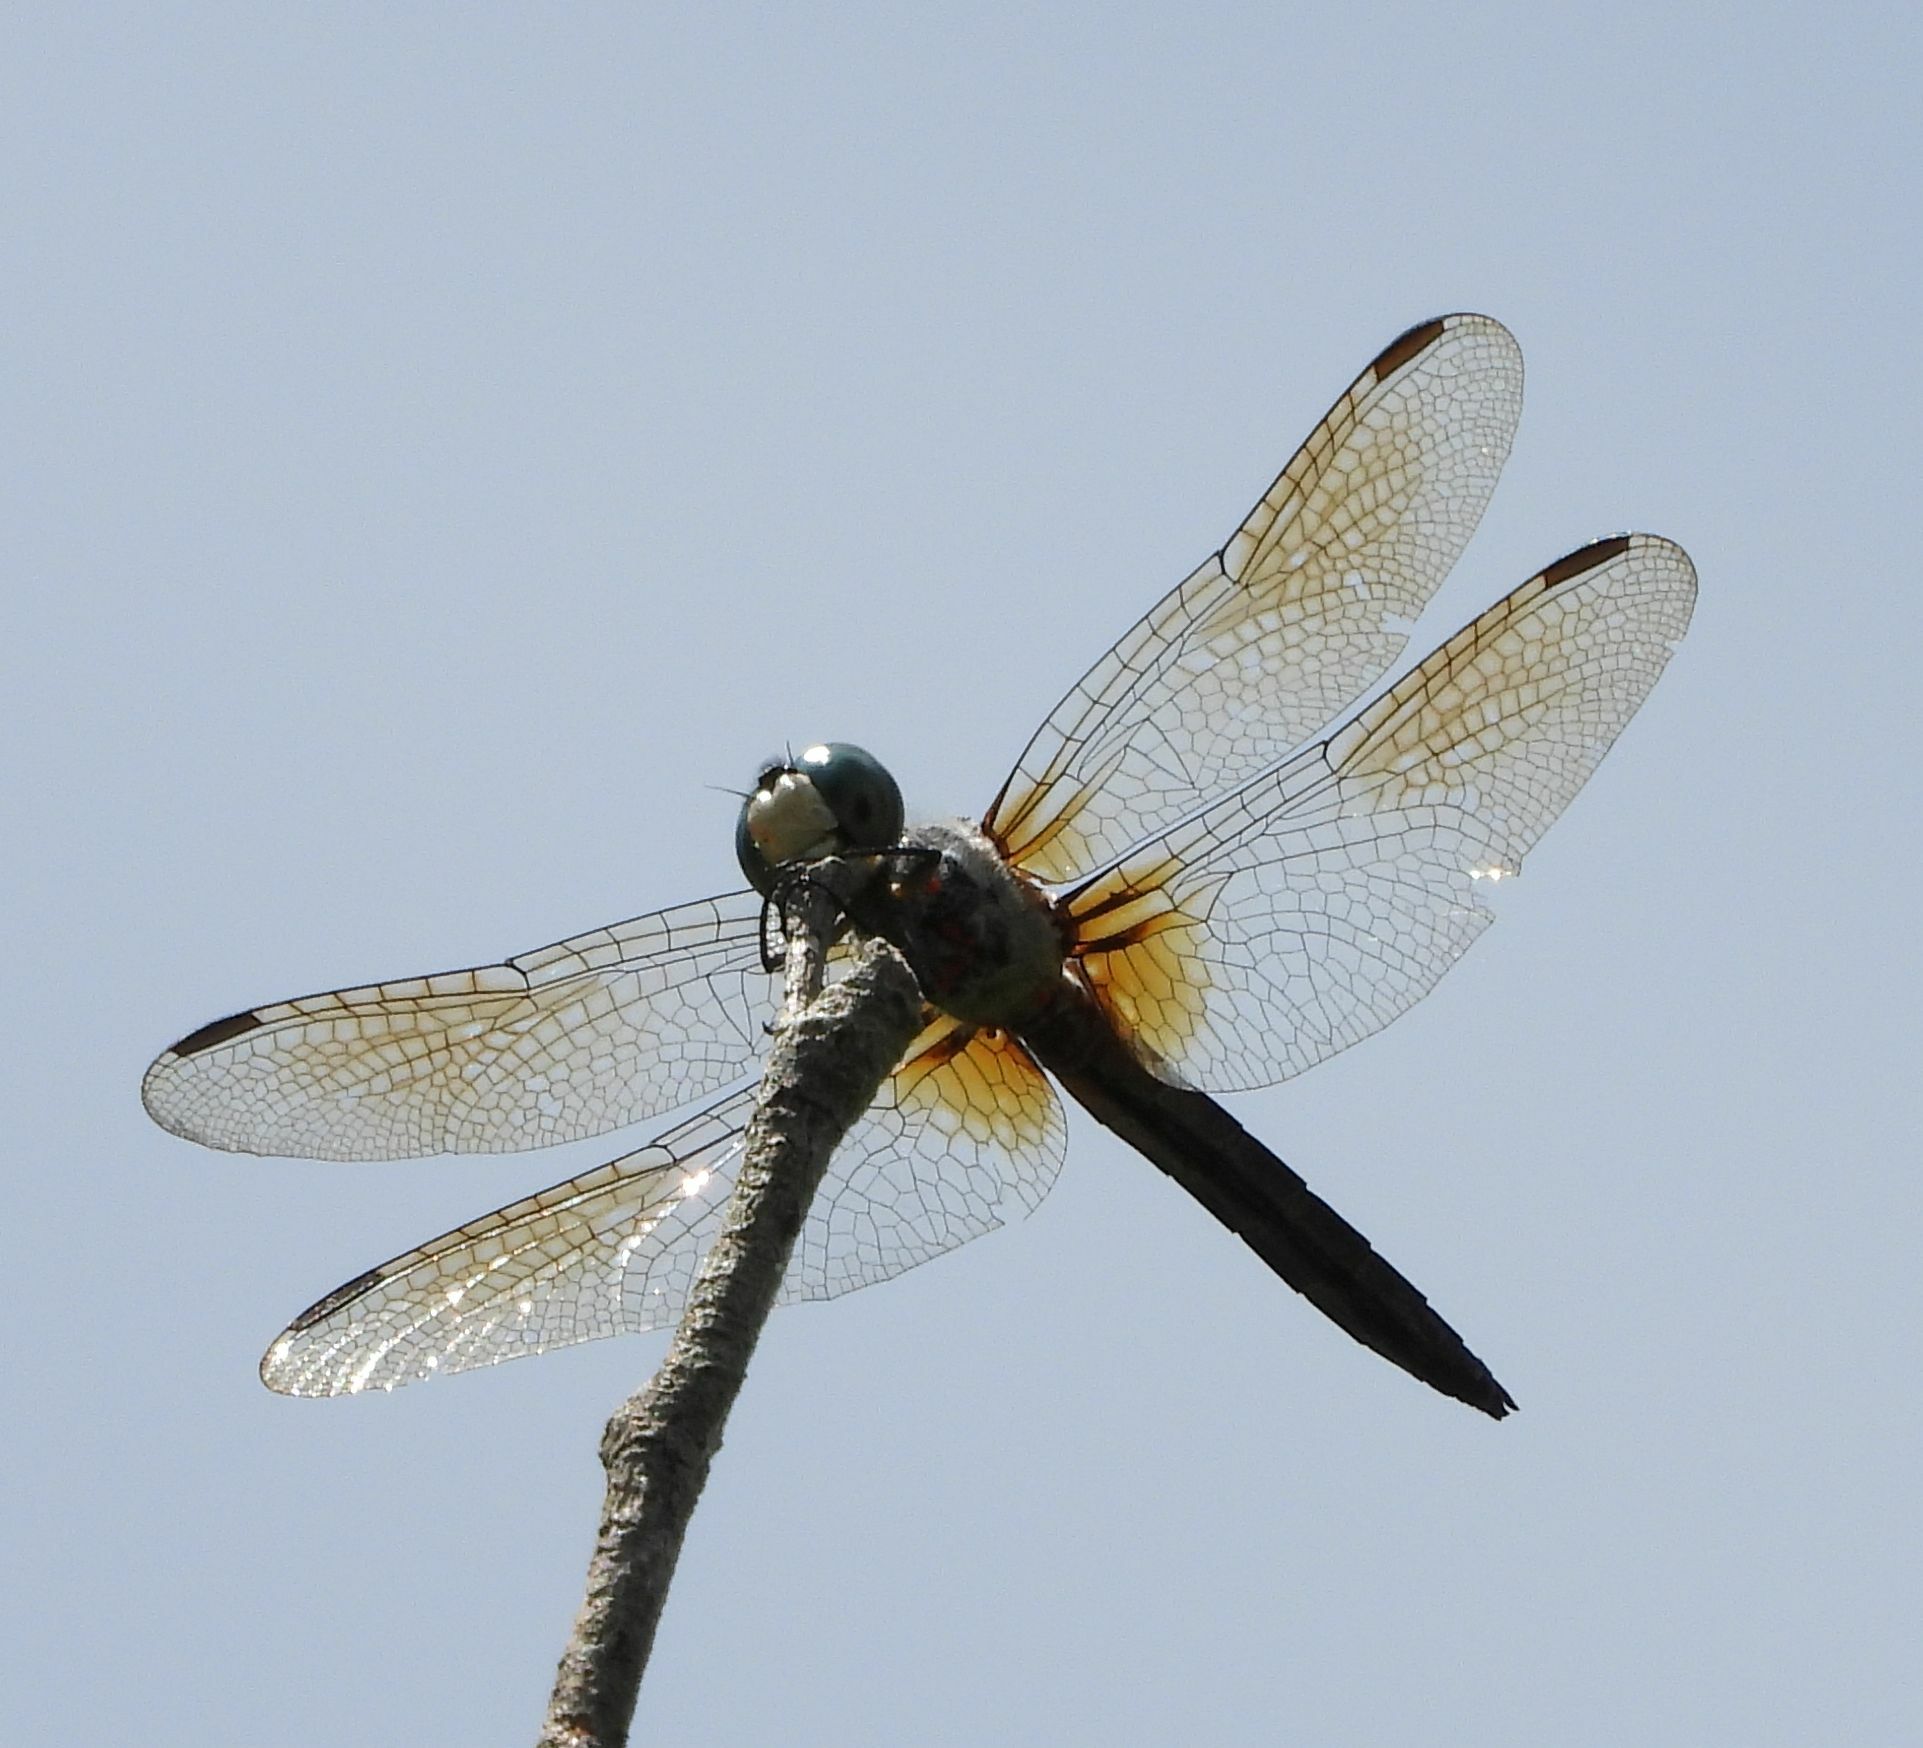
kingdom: Animalia
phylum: Arthropoda
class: Insecta
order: Odonata
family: Libellulidae
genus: Pachydiplax
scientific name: Pachydiplax longipennis
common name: Blue dasher
